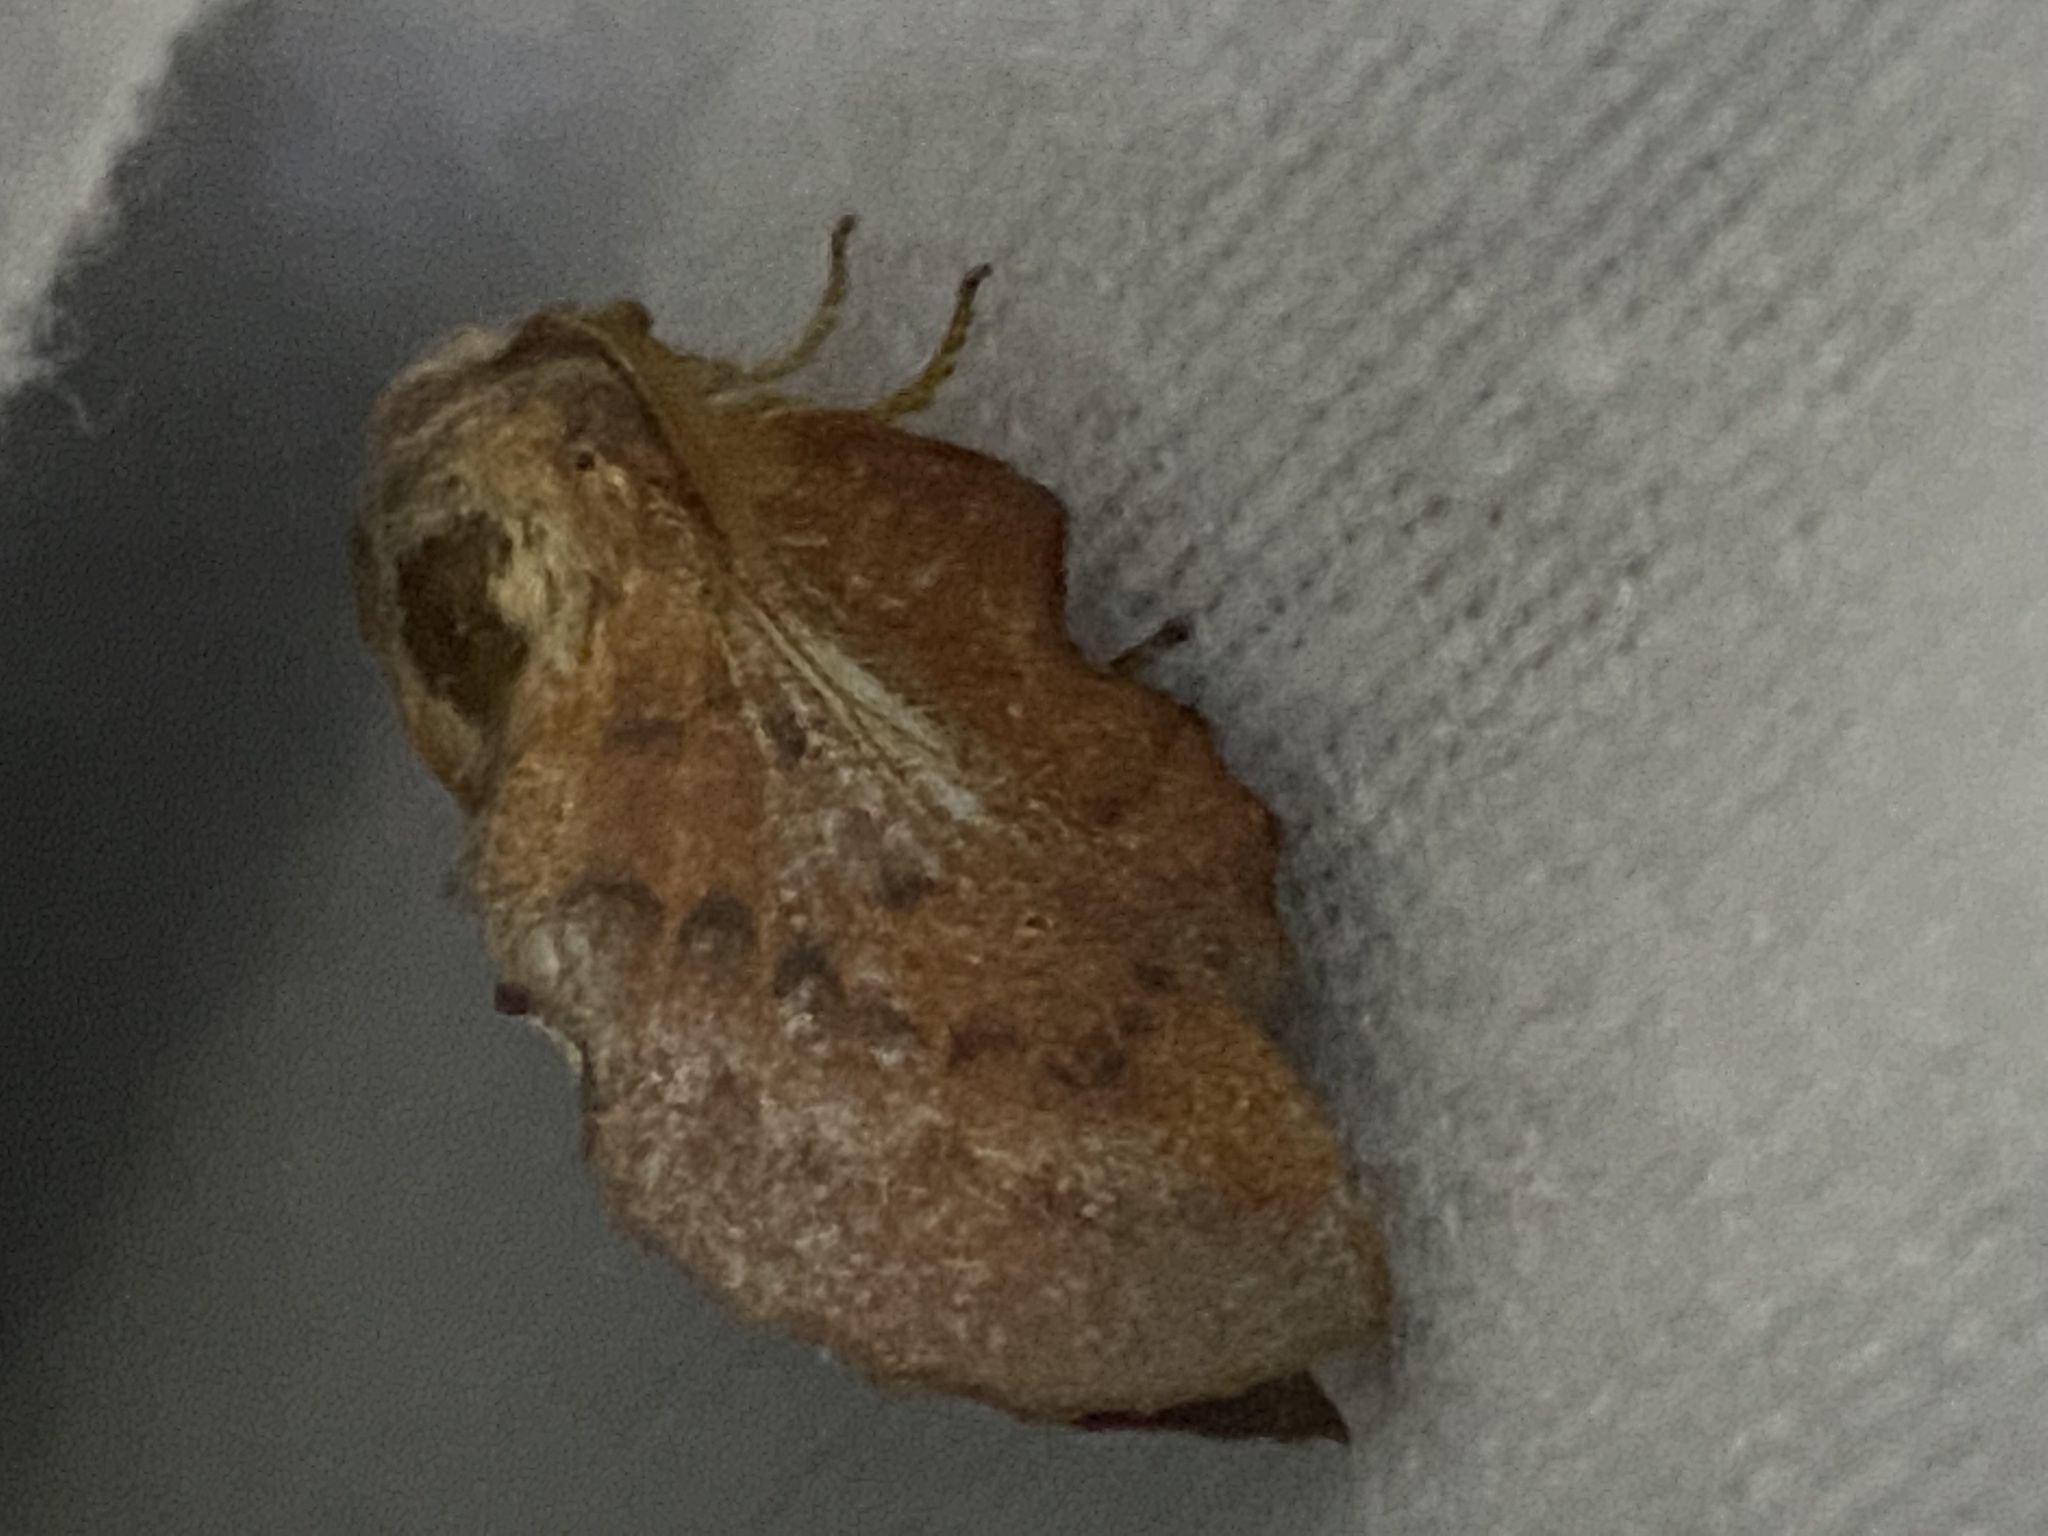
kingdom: Animalia
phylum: Arthropoda
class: Insecta
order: Lepidoptera
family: Lasiocampidae
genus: Phyllodesma
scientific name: Phyllodesma americana
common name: American lappet moth
